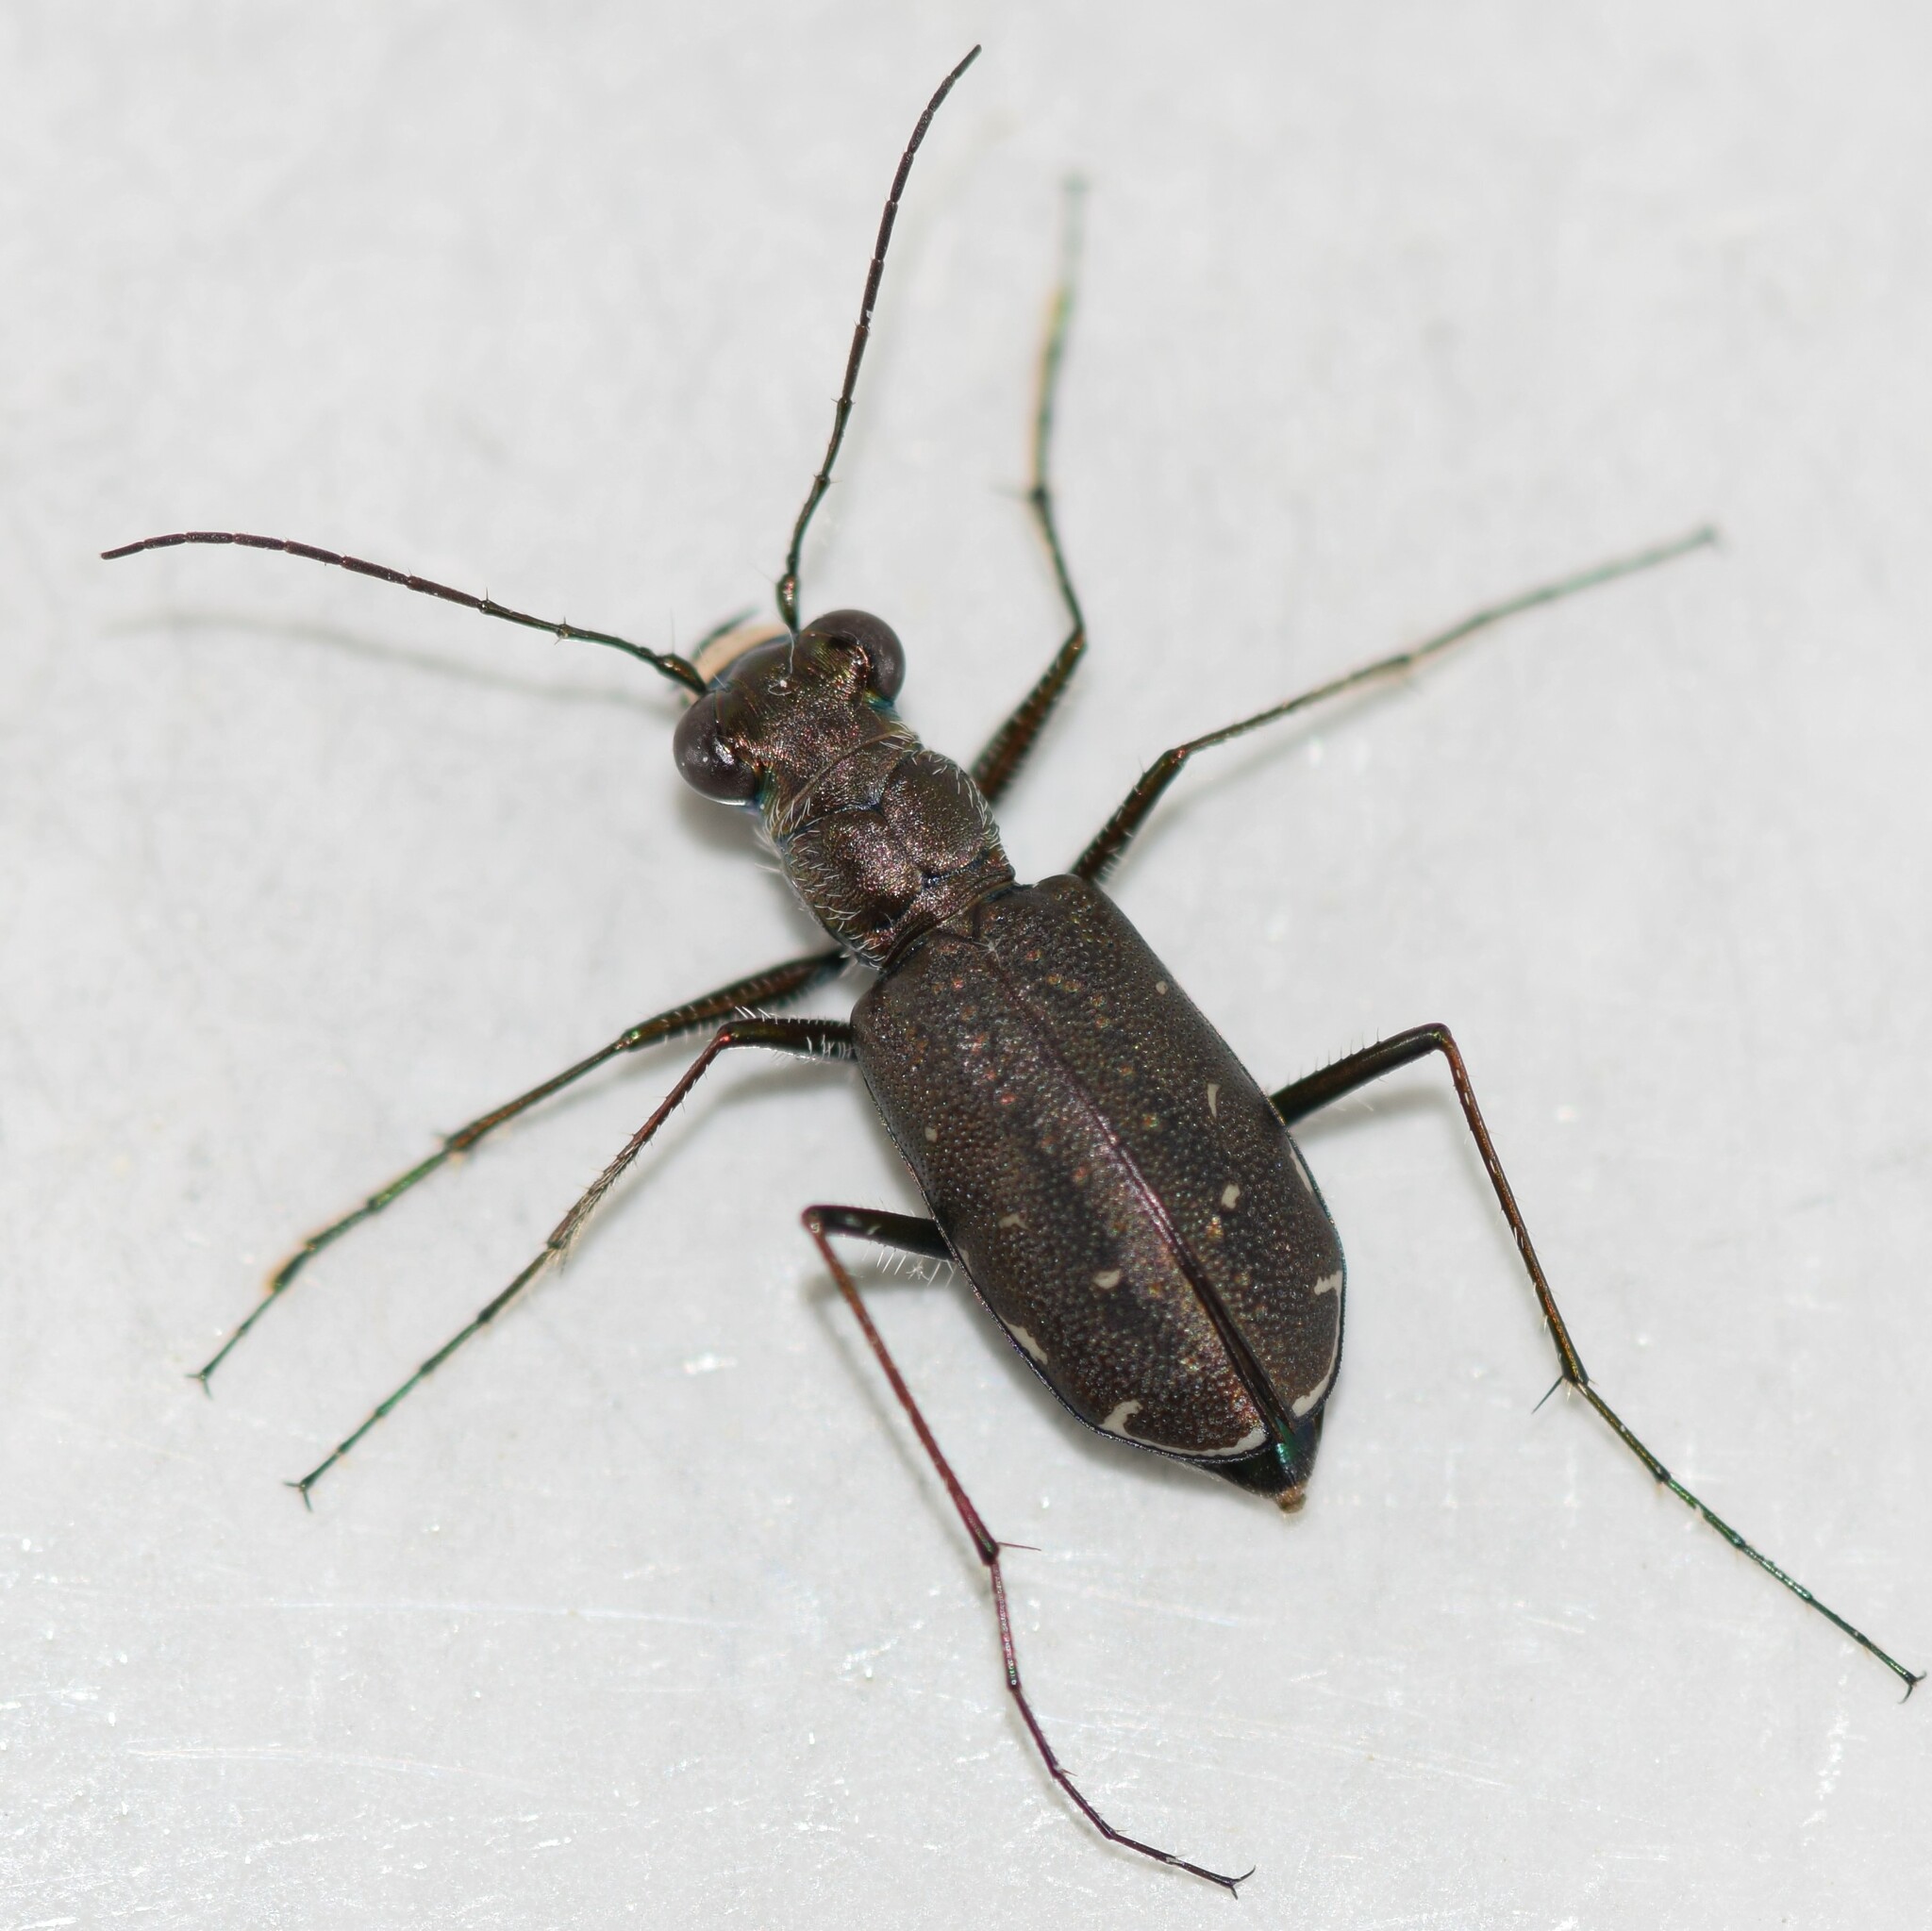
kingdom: Animalia
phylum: Arthropoda
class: Insecta
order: Coleoptera
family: Carabidae
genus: Cicindela
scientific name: Cicindela punctulata
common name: Punctured tiger beetle
